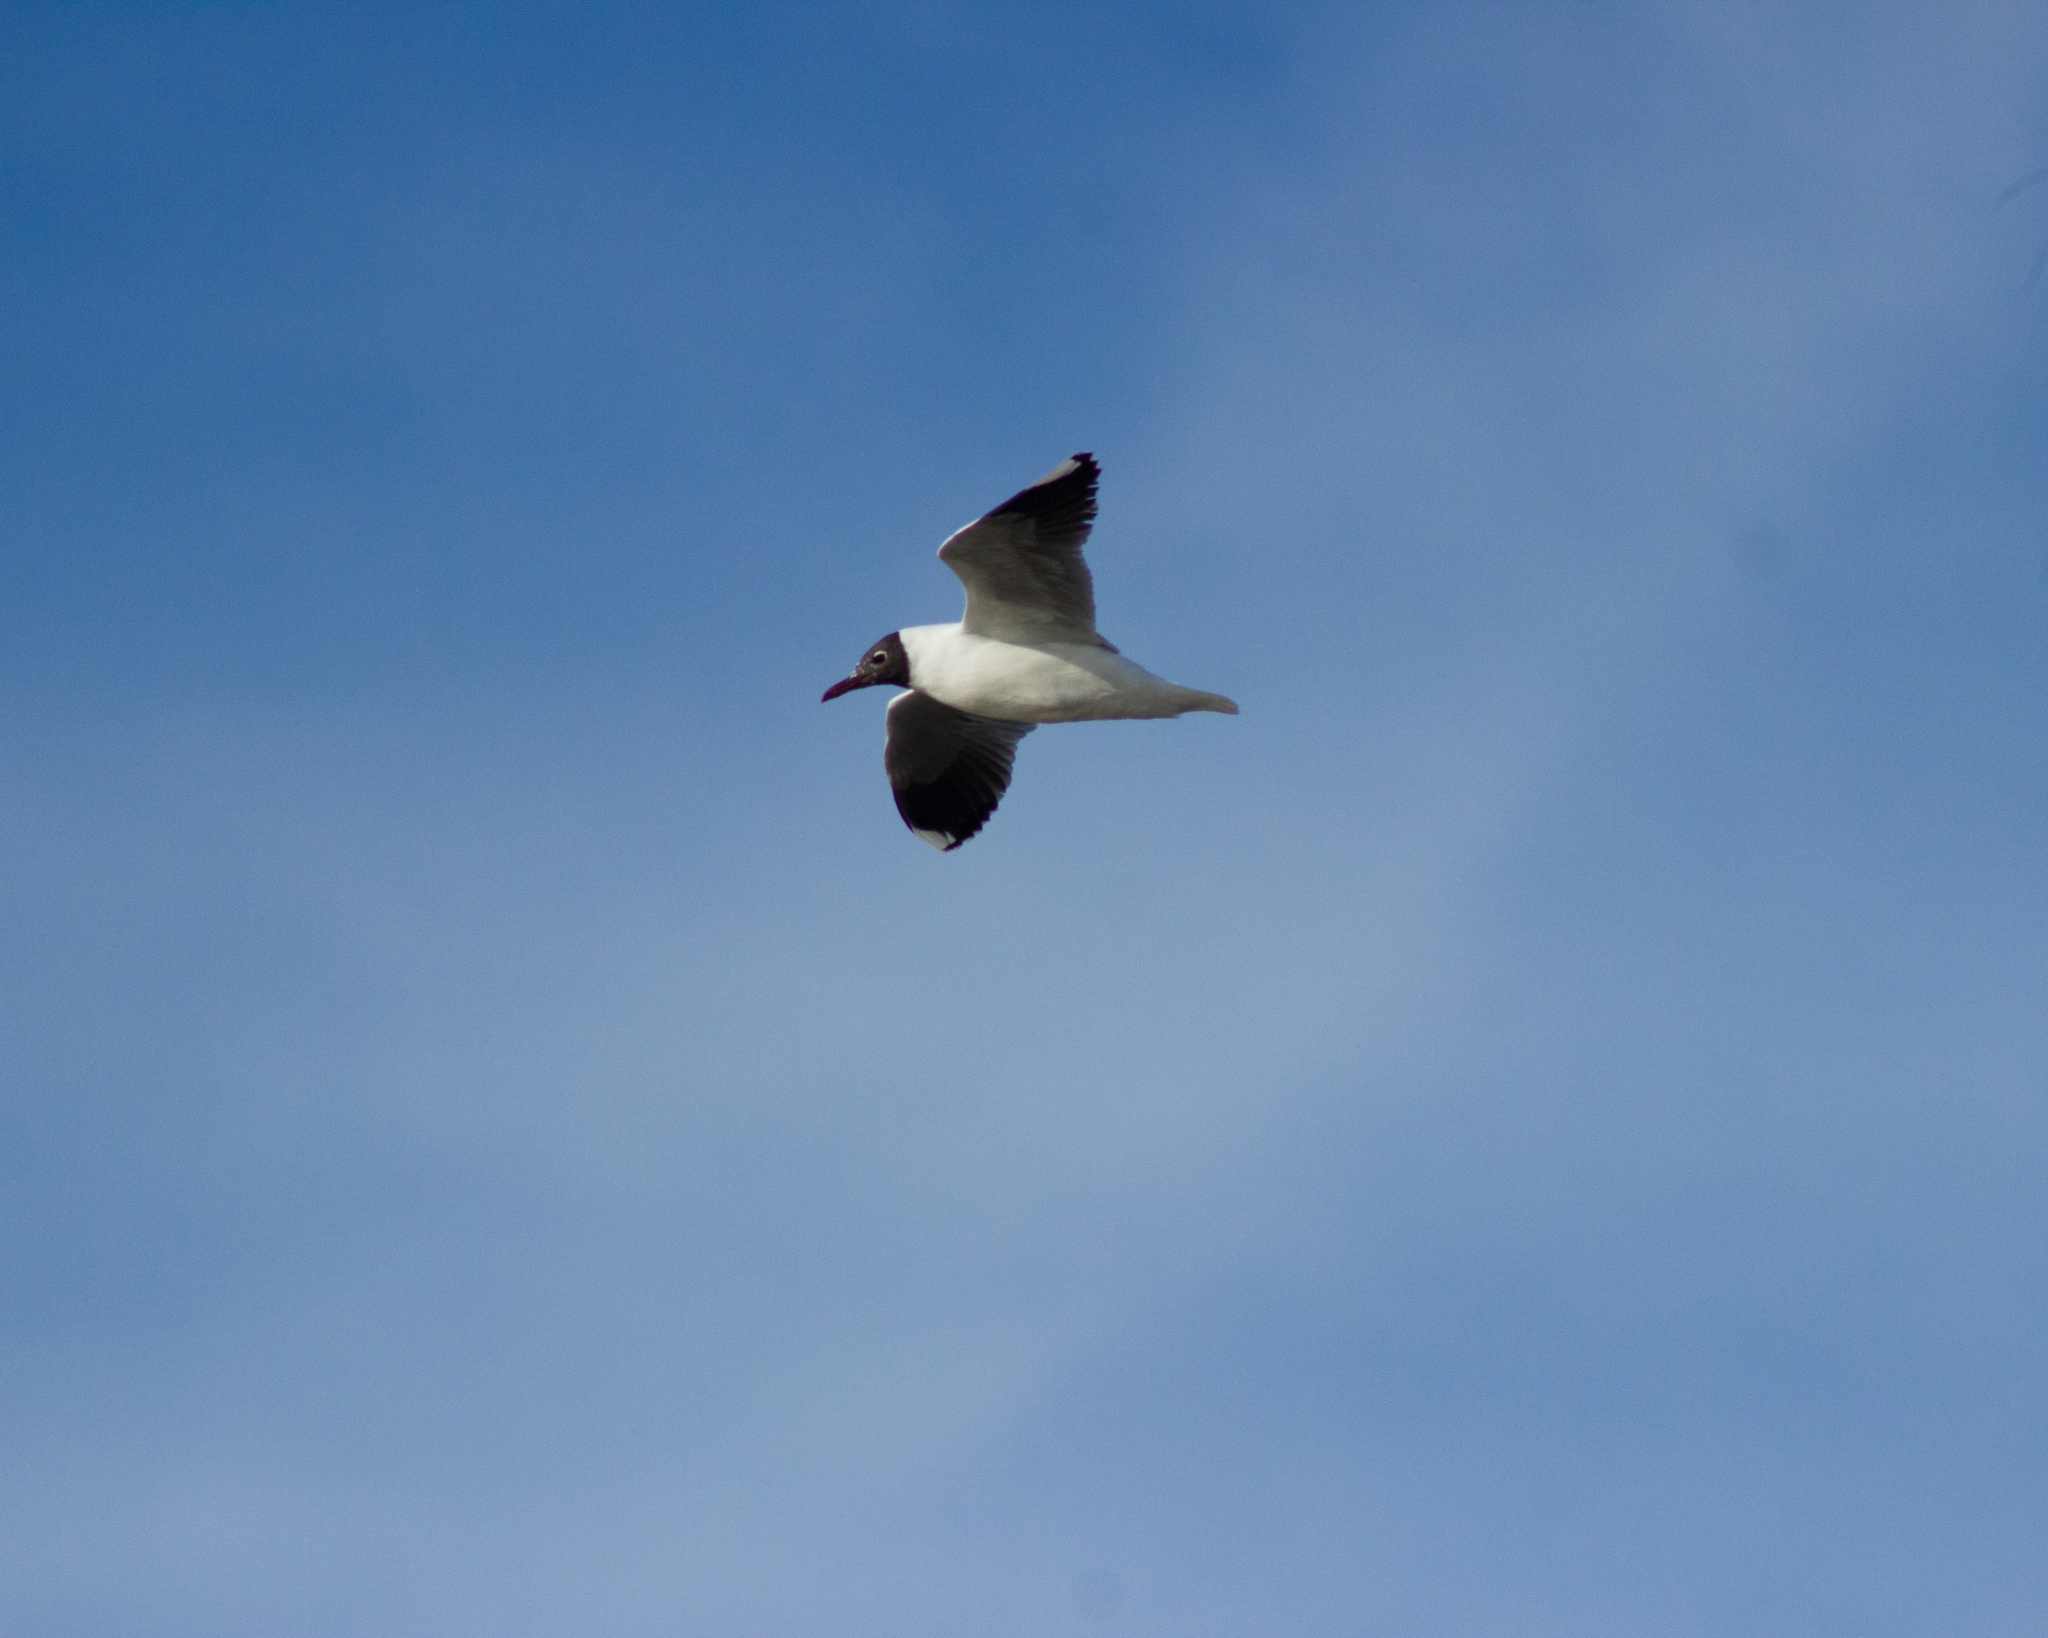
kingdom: Animalia
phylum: Chordata
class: Aves
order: Charadriiformes
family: Laridae
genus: Chroicocephalus
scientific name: Chroicocephalus maculipennis
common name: Brown-hooded gull
